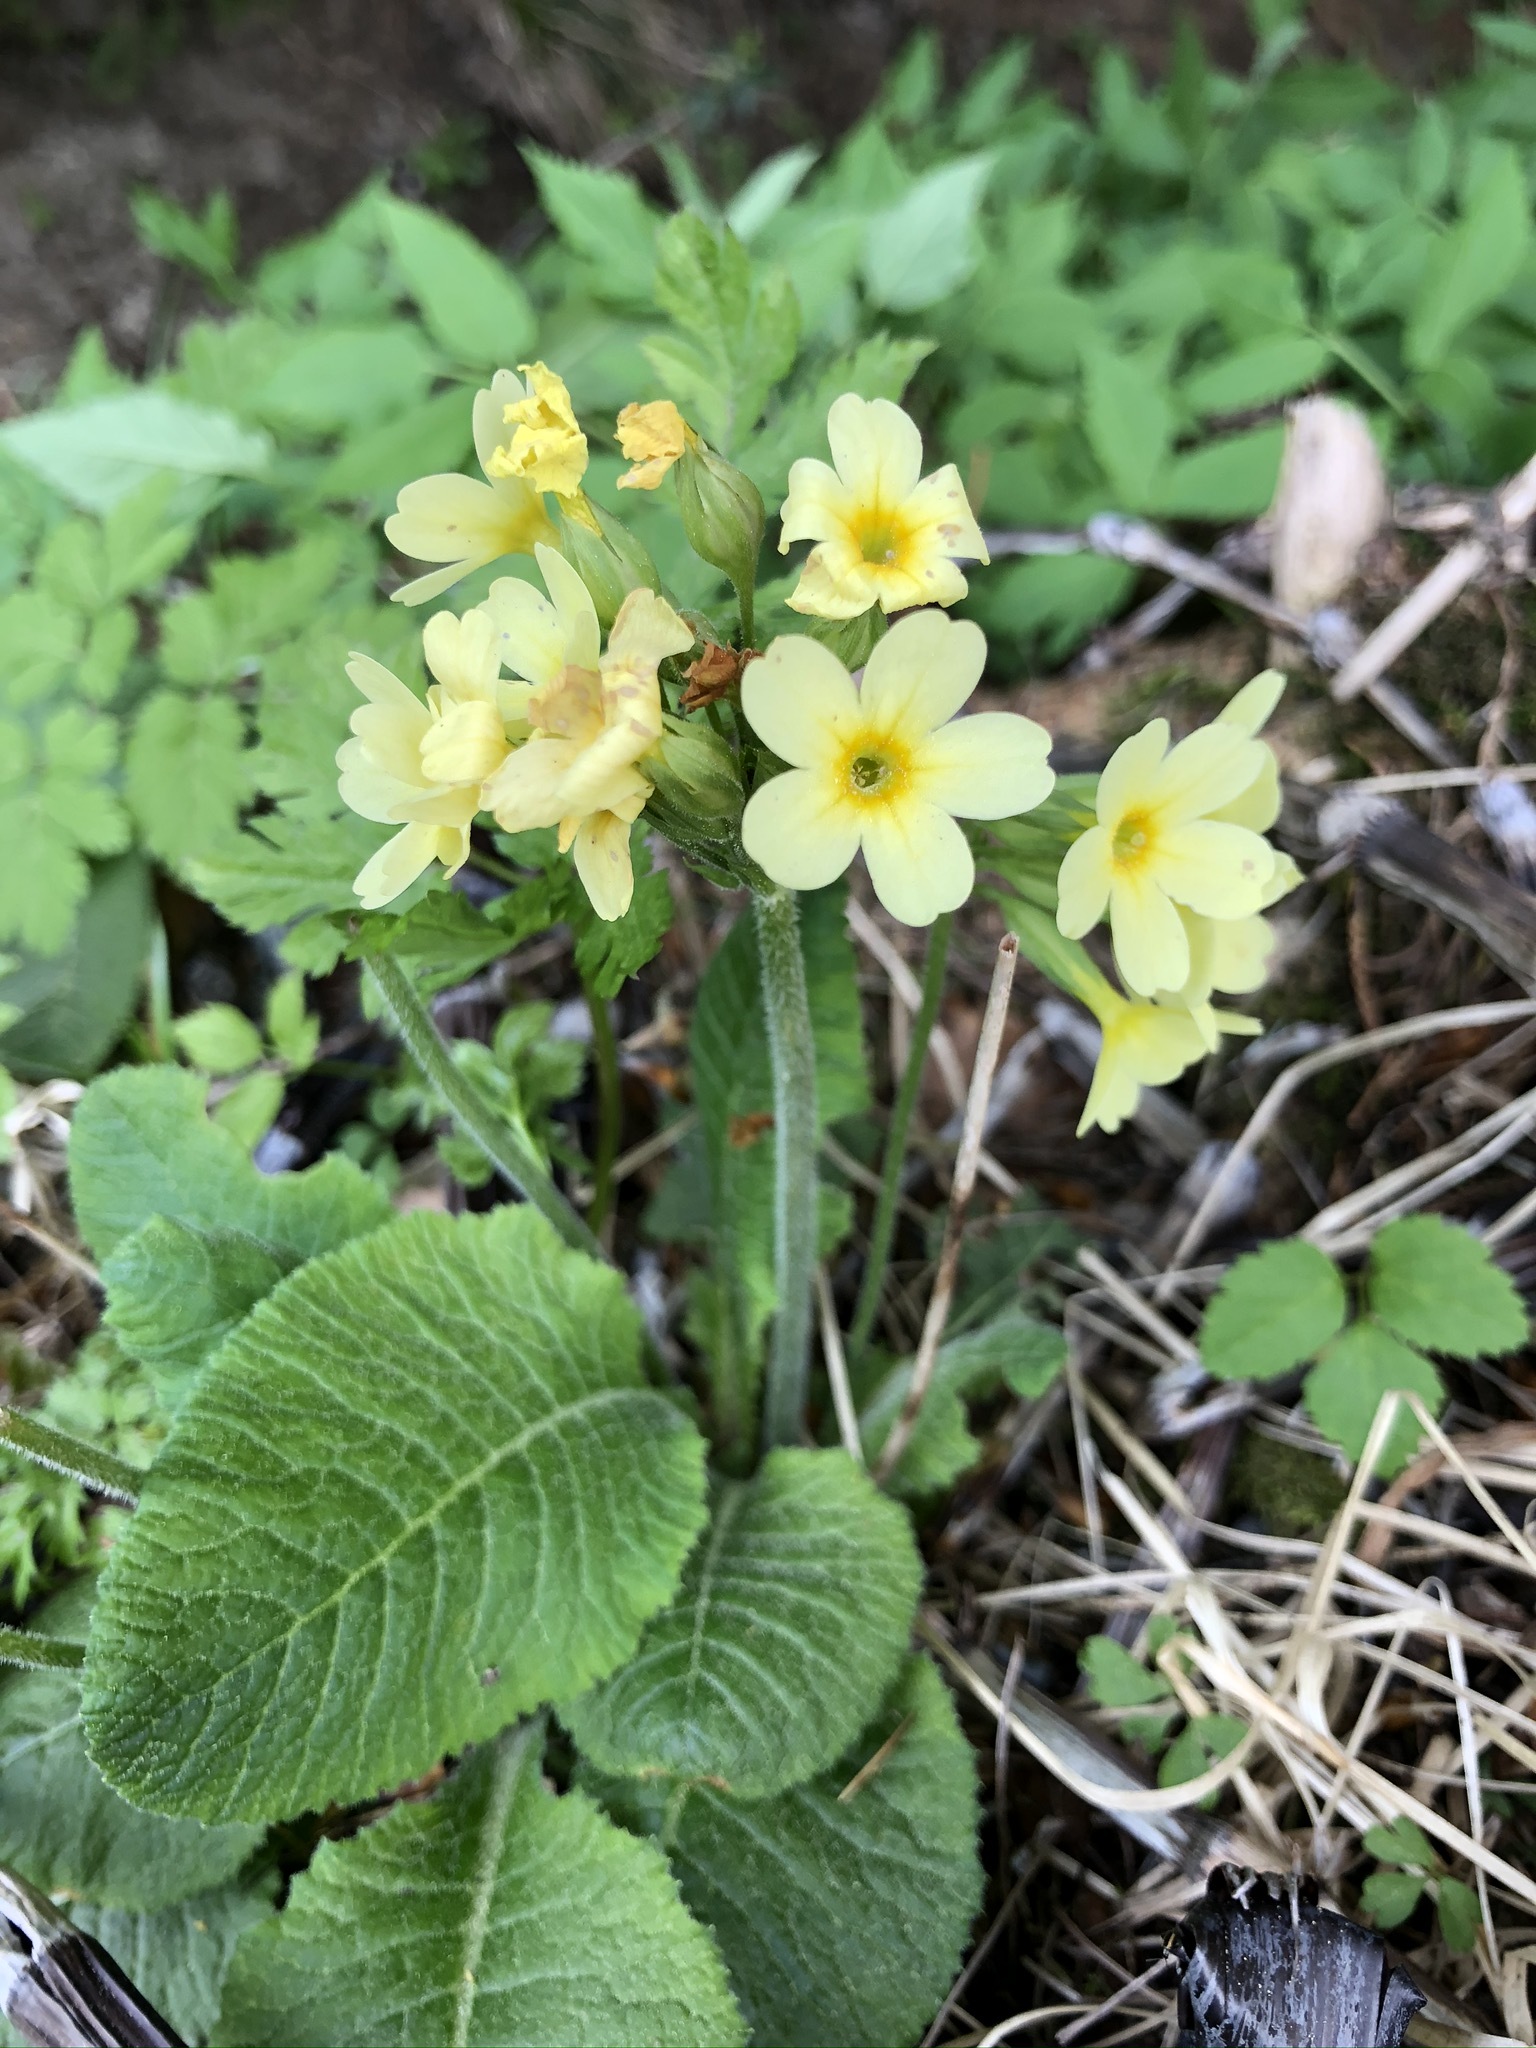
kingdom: Plantae
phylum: Tracheophyta
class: Magnoliopsida
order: Ericales
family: Primulaceae
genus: Primula
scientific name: Primula elatior
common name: Oxlip
